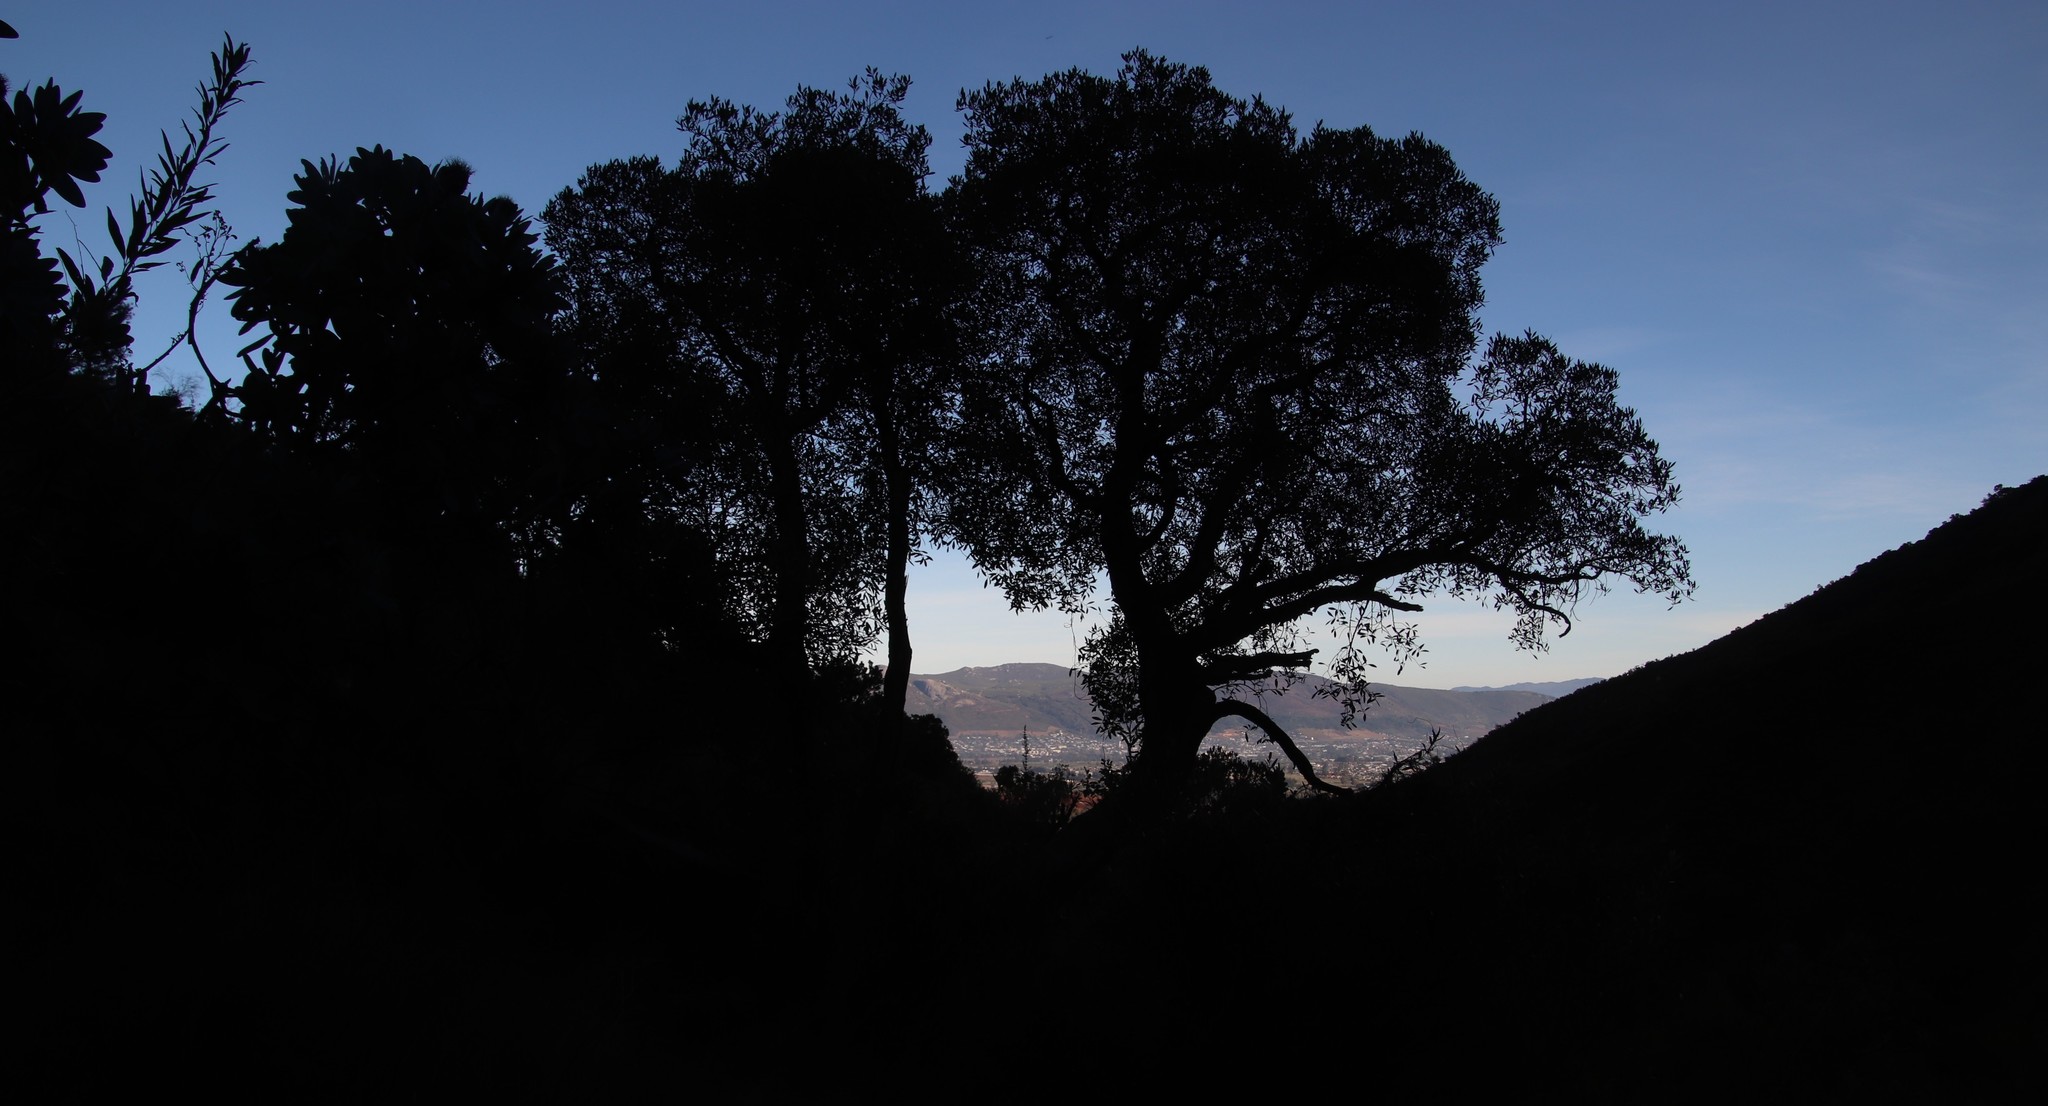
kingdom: Plantae
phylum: Tracheophyta
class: Magnoliopsida
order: Celastrales
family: Celastraceae
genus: Gymnosporia
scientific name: Gymnosporia laurina
